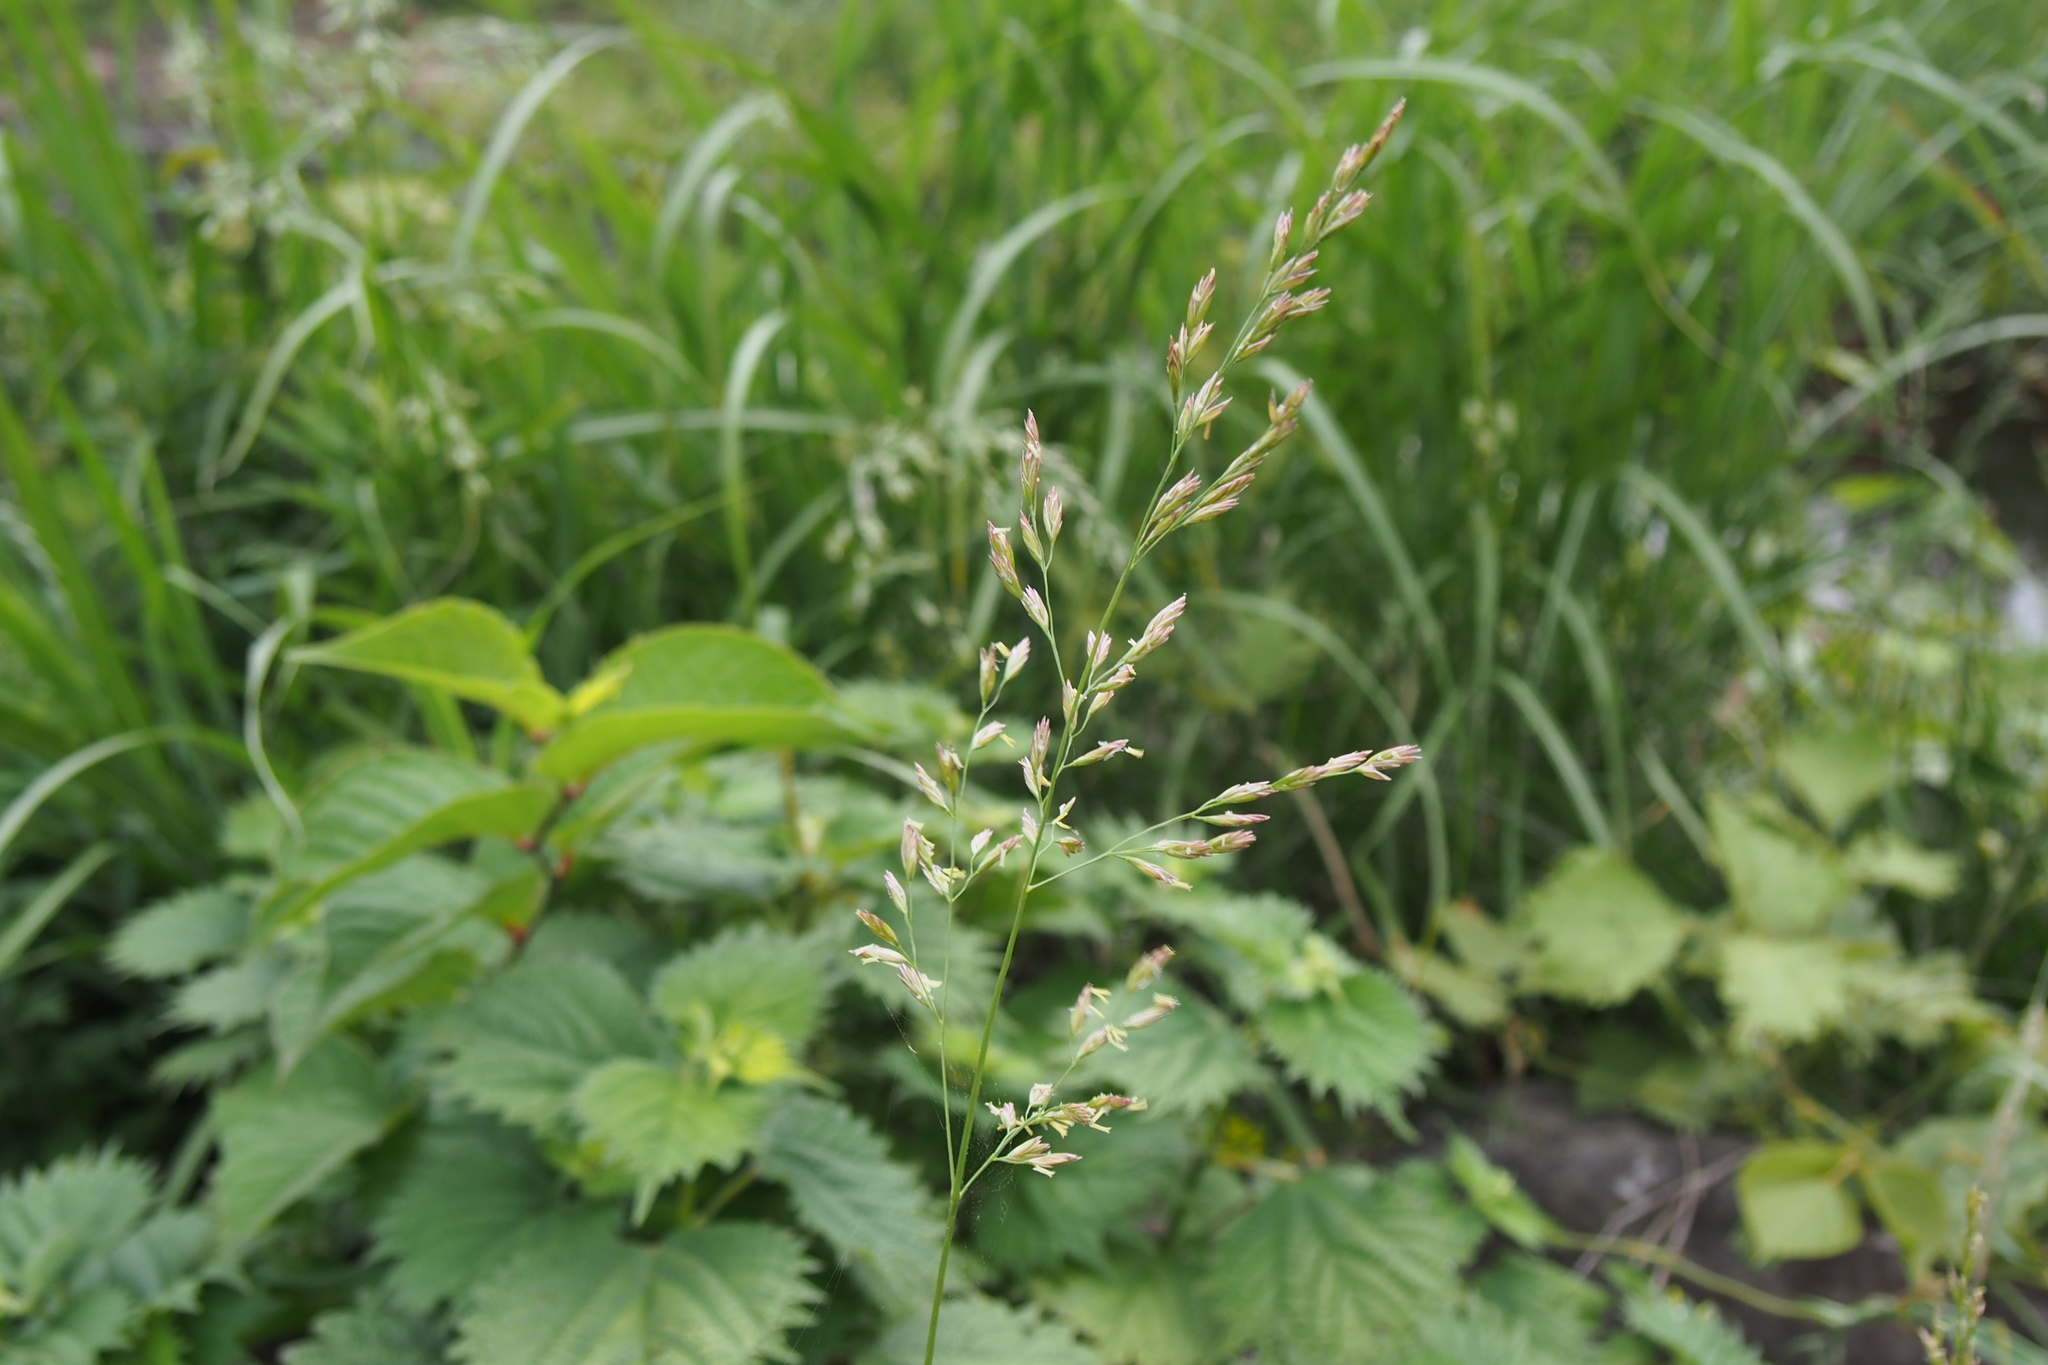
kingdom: Plantae
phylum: Tracheophyta
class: Liliopsida
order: Poales
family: Poaceae
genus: Lolium
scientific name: Lolium arundinaceum
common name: Reed fescue
